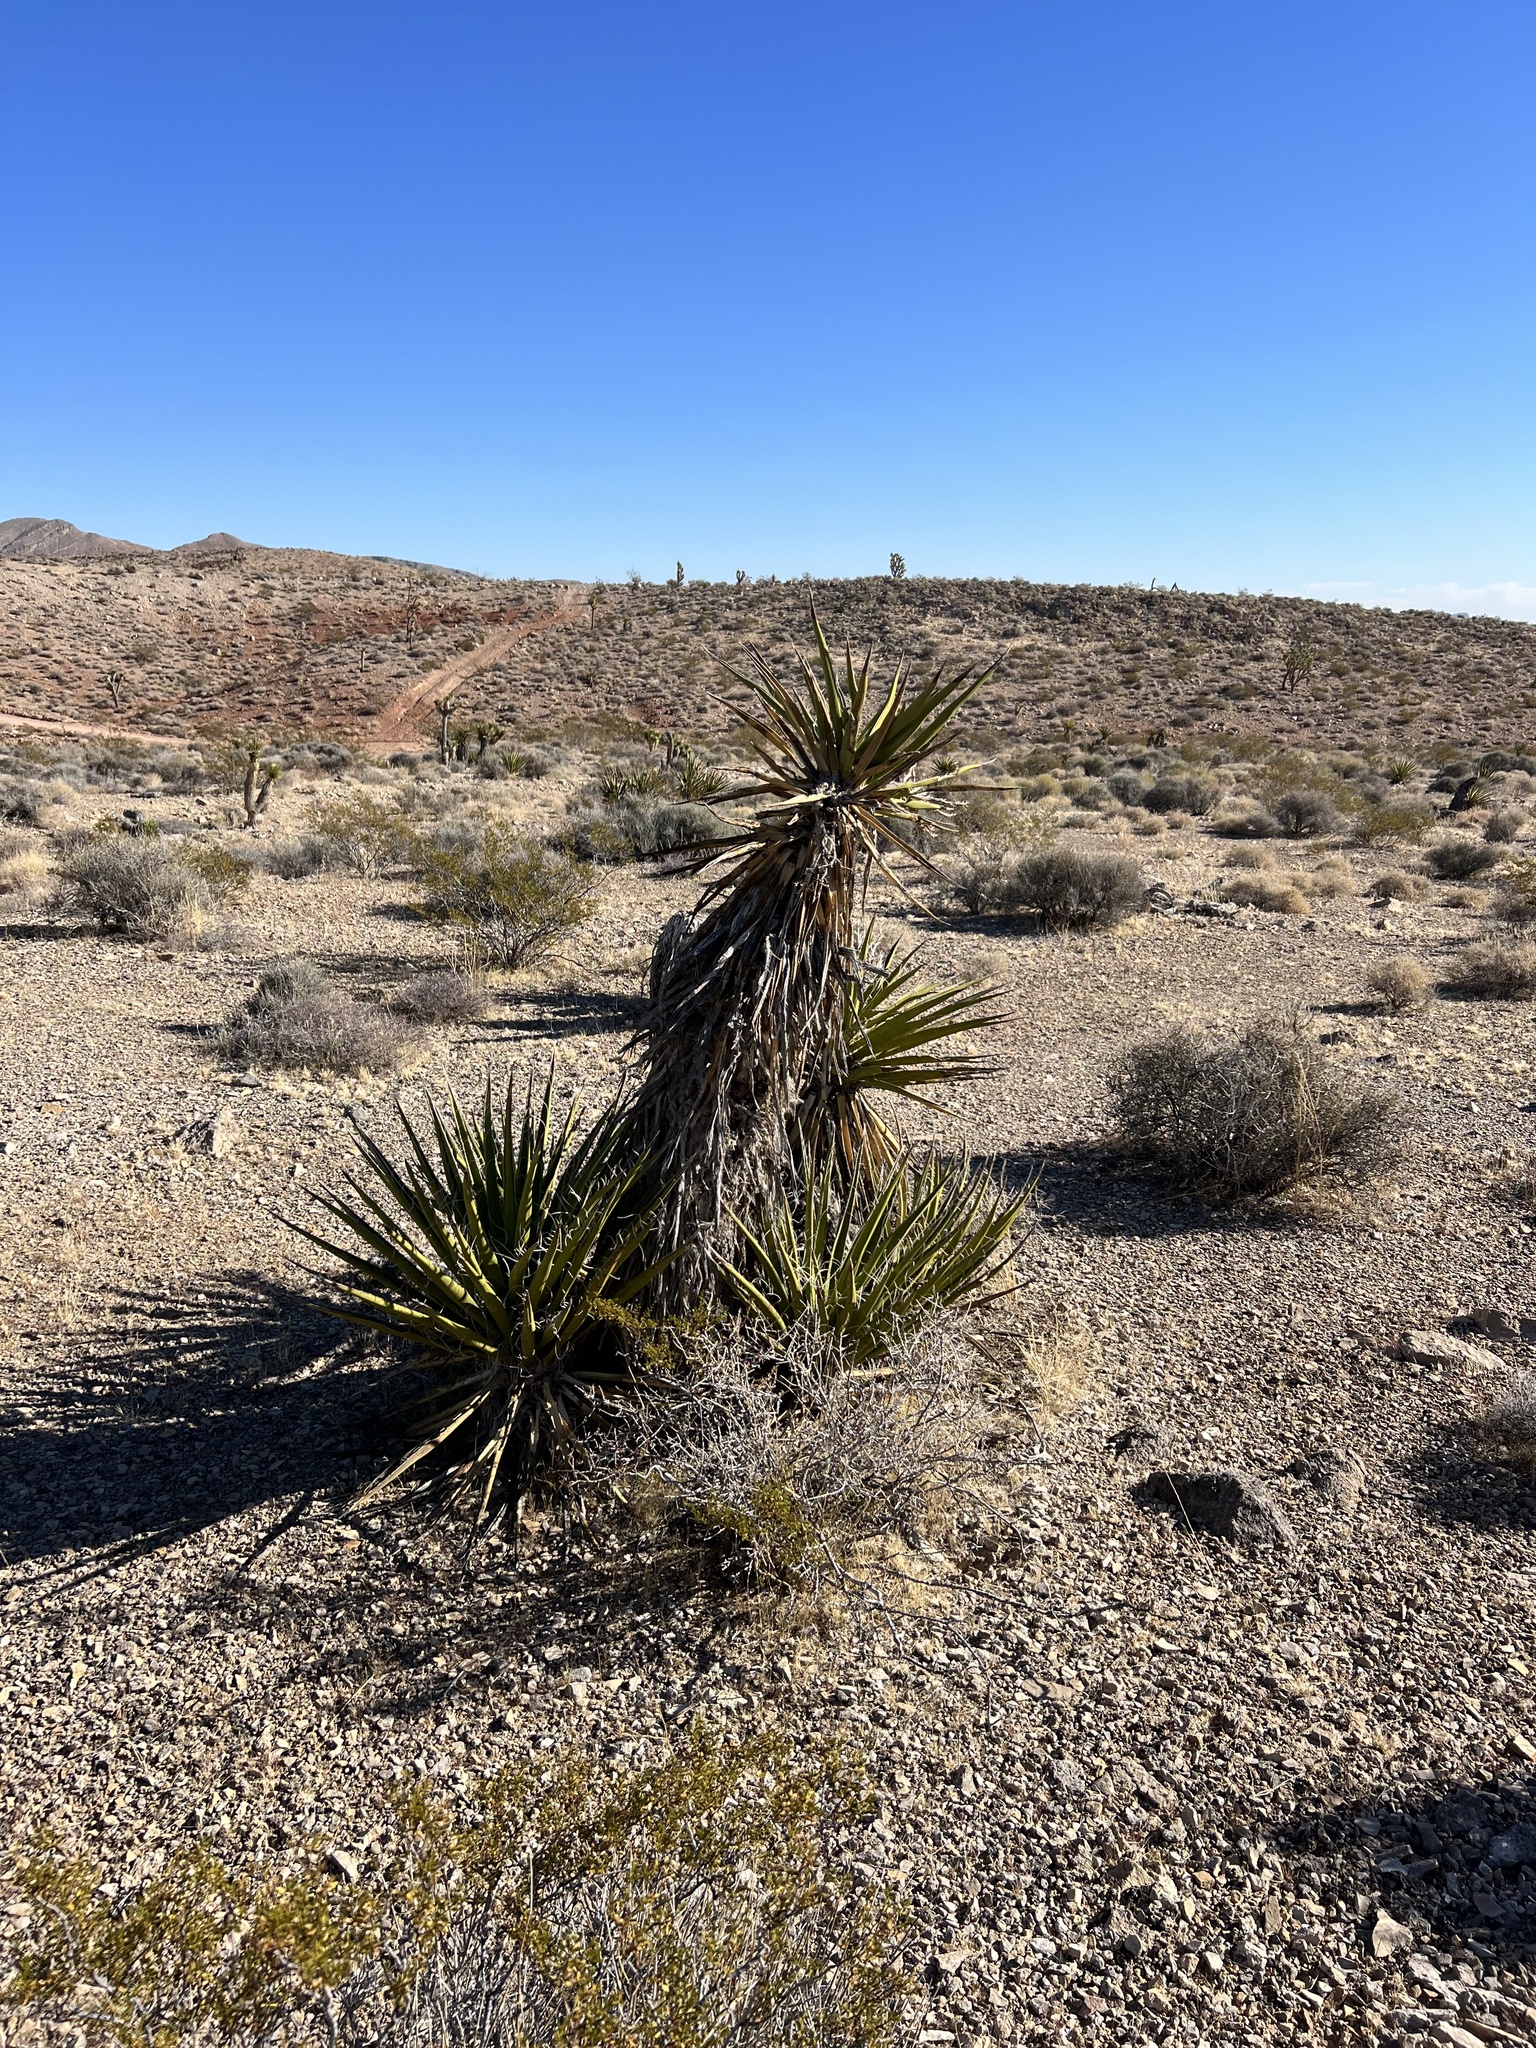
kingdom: Plantae
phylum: Tracheophyta
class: Liliopsida
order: Asparagales
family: Asparagaceae
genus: Yucca
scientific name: Yucca schidigera
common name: Mojave yucca
